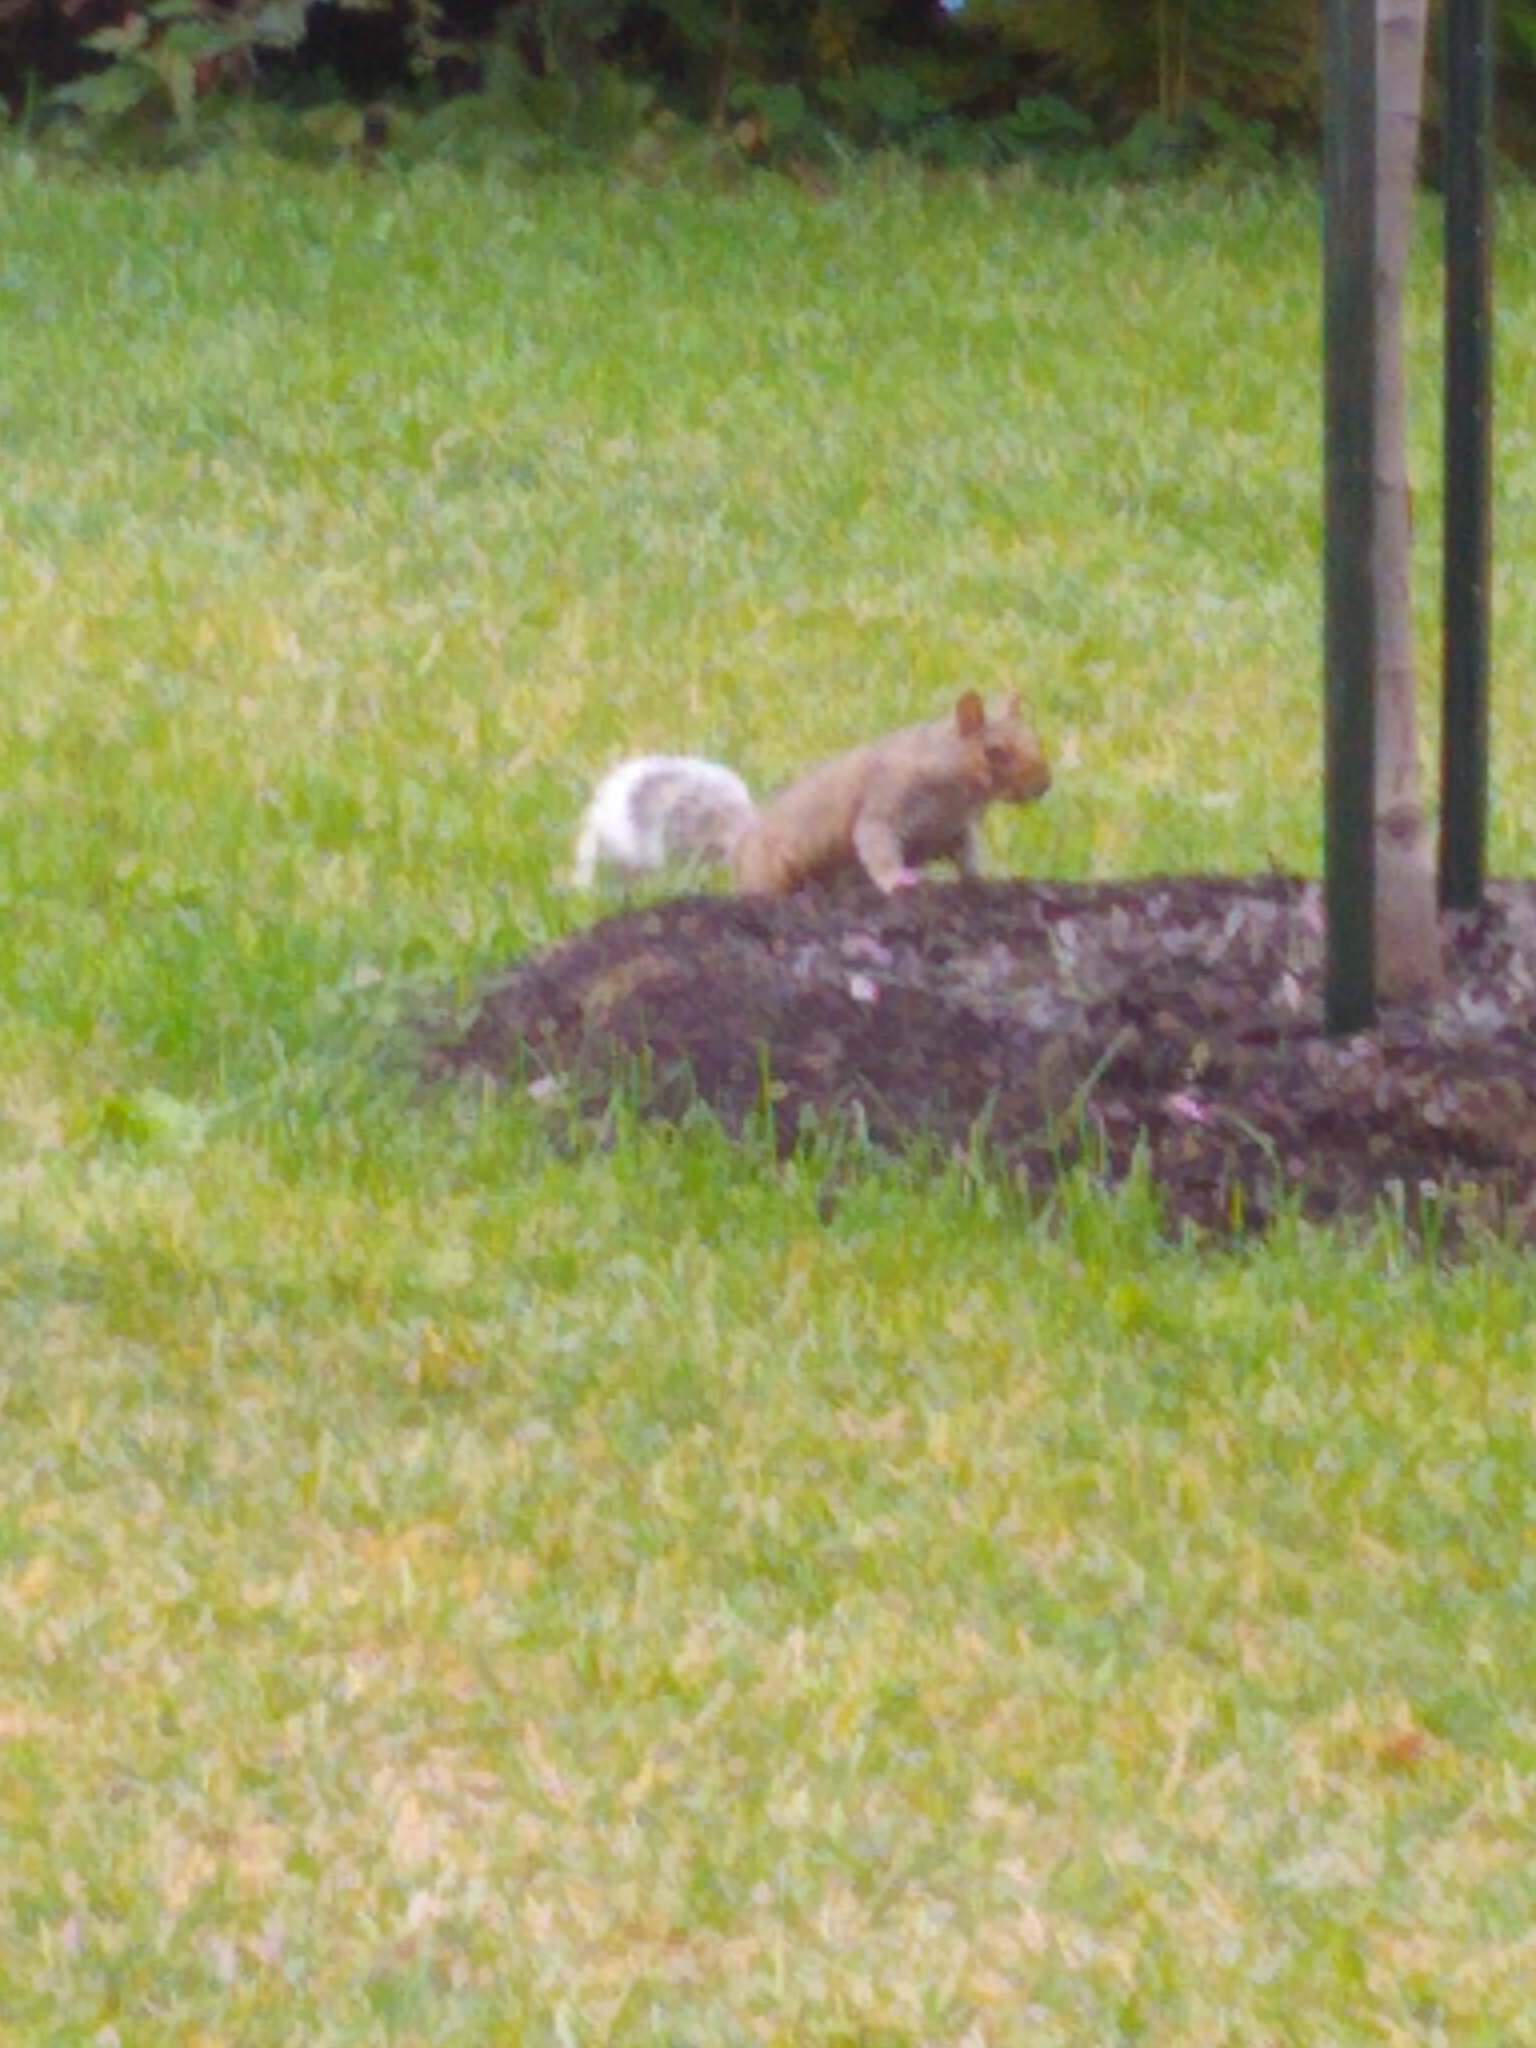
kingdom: Animalia
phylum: Chordata
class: Mammalia
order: Rodentia
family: Sciuridae
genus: Sciurus
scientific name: Sciurus carolinensis
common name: Eastern gray squirrel
